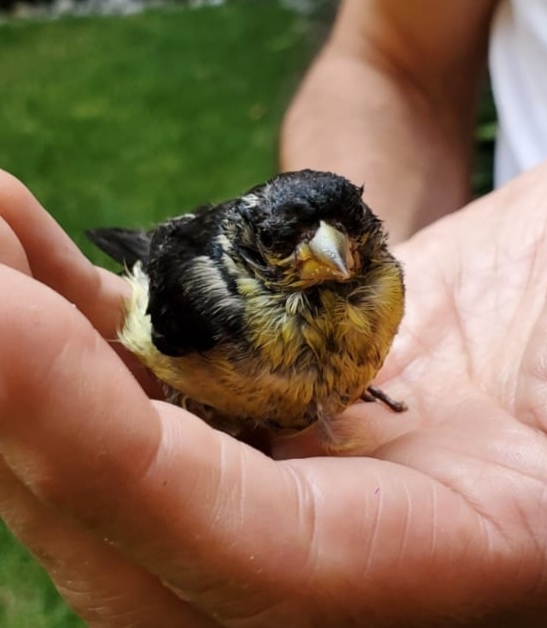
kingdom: Animalia
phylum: Chordata
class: Aves
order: Passeriformes
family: Fringillidae
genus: Spinus
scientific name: Spinus psaltria
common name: Lesser goldfinch
